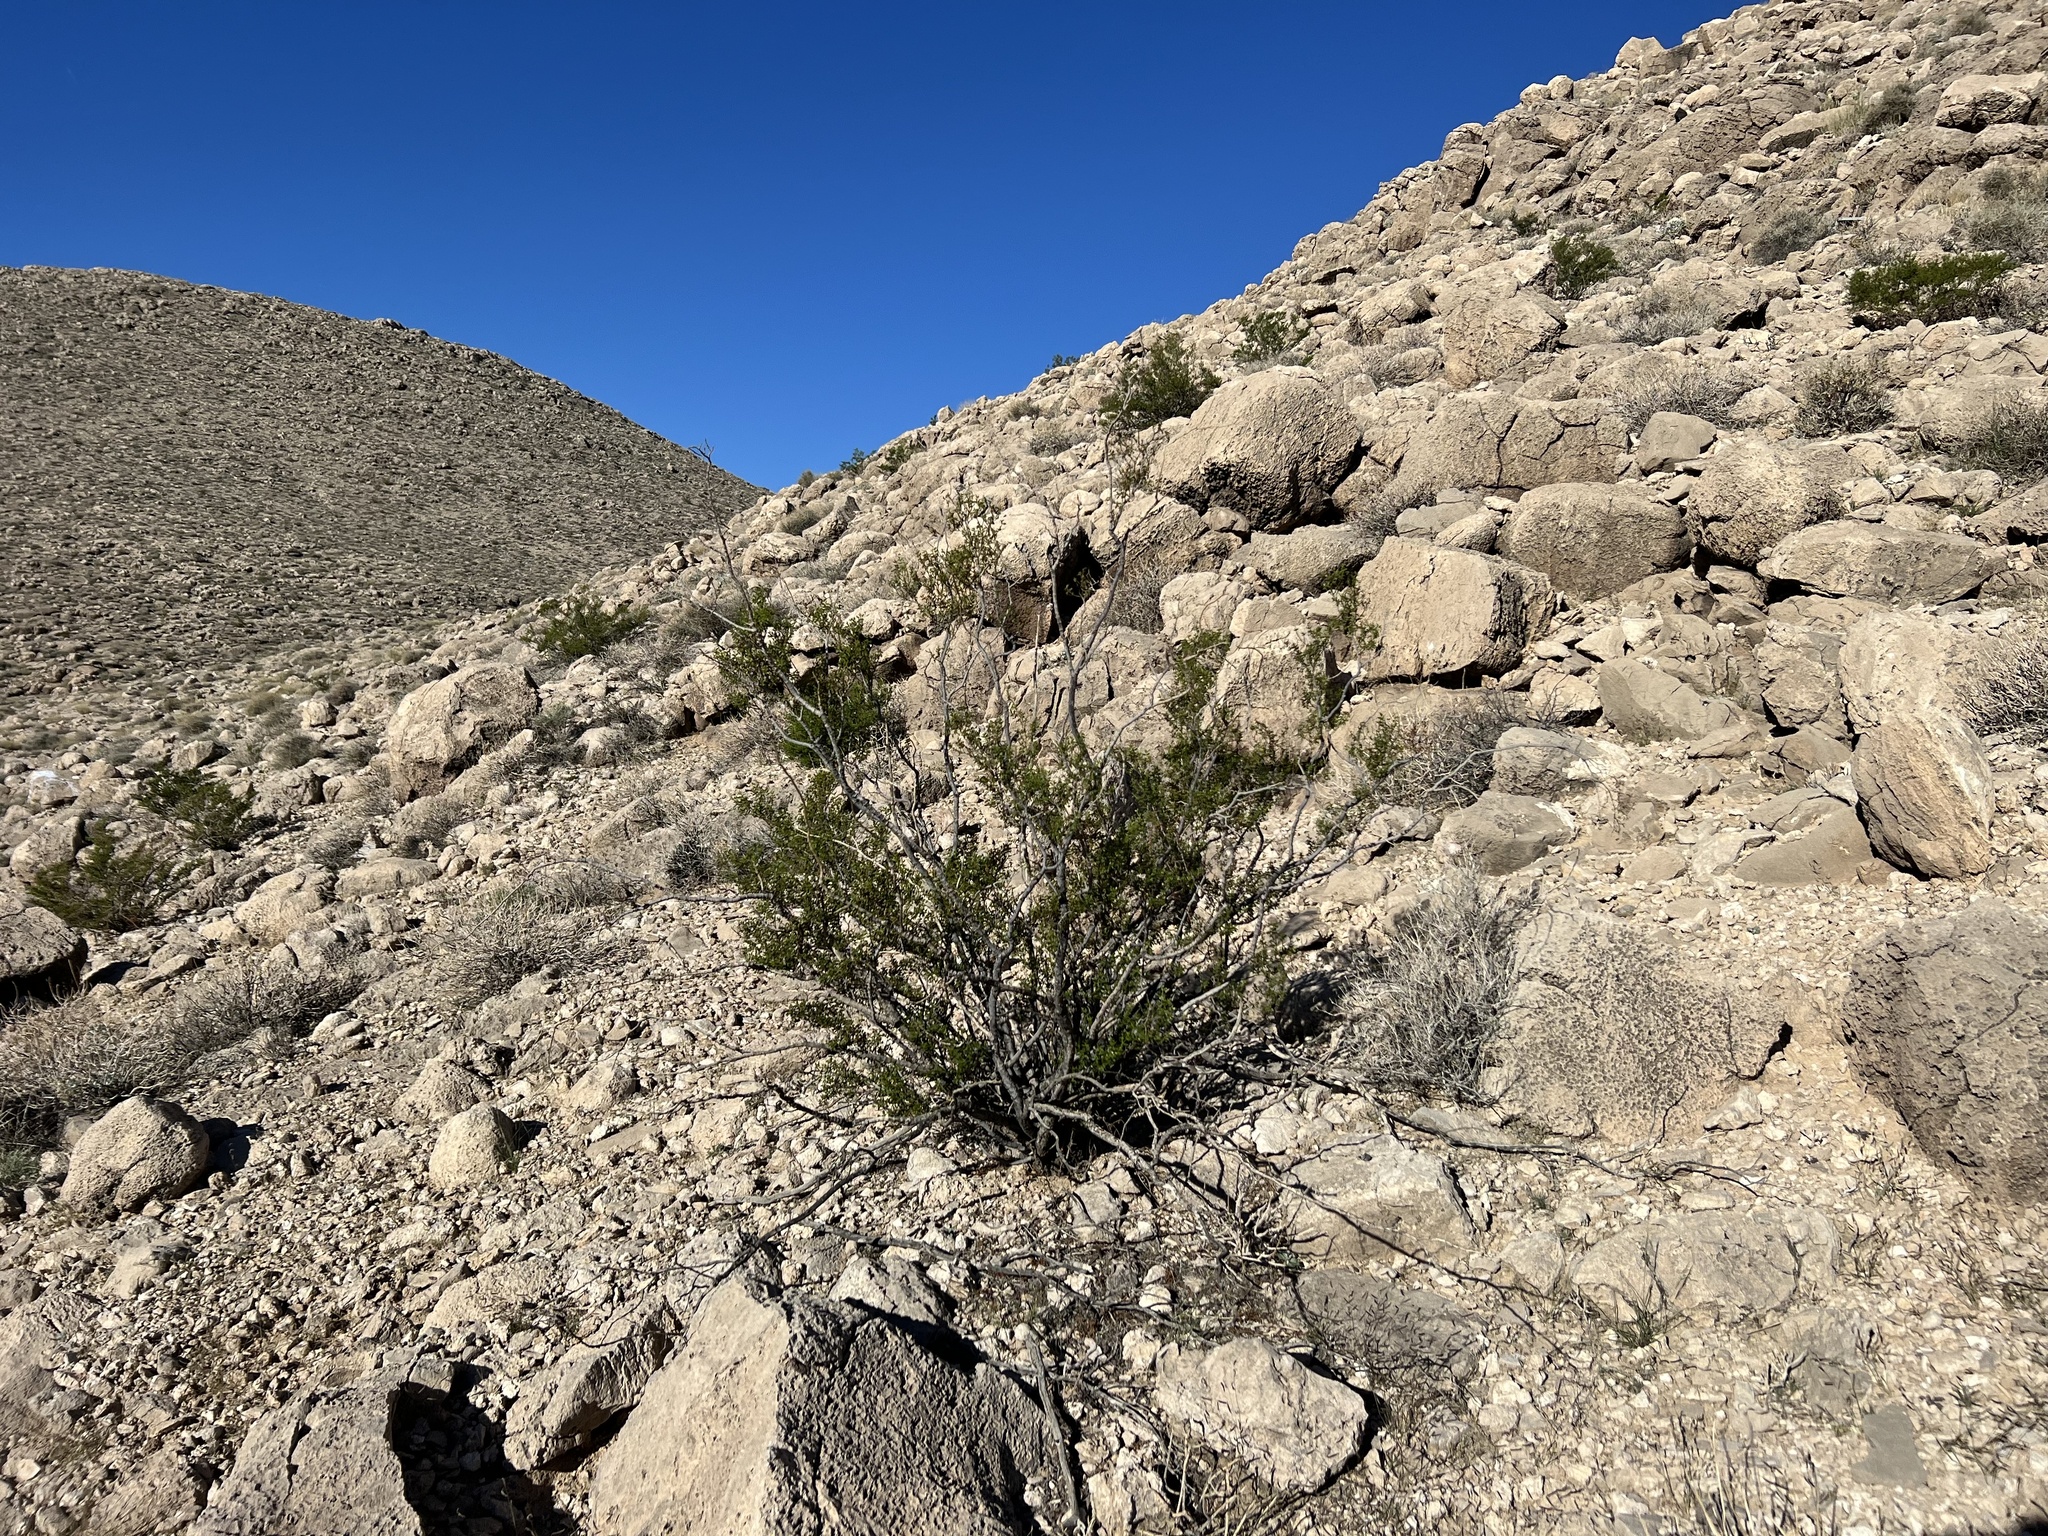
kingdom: Plantae
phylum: Tracheophyta
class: Magnoliopsida
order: Zygophyllales
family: Zygophyllaceae
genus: Larrea
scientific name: Larrea tridentata
